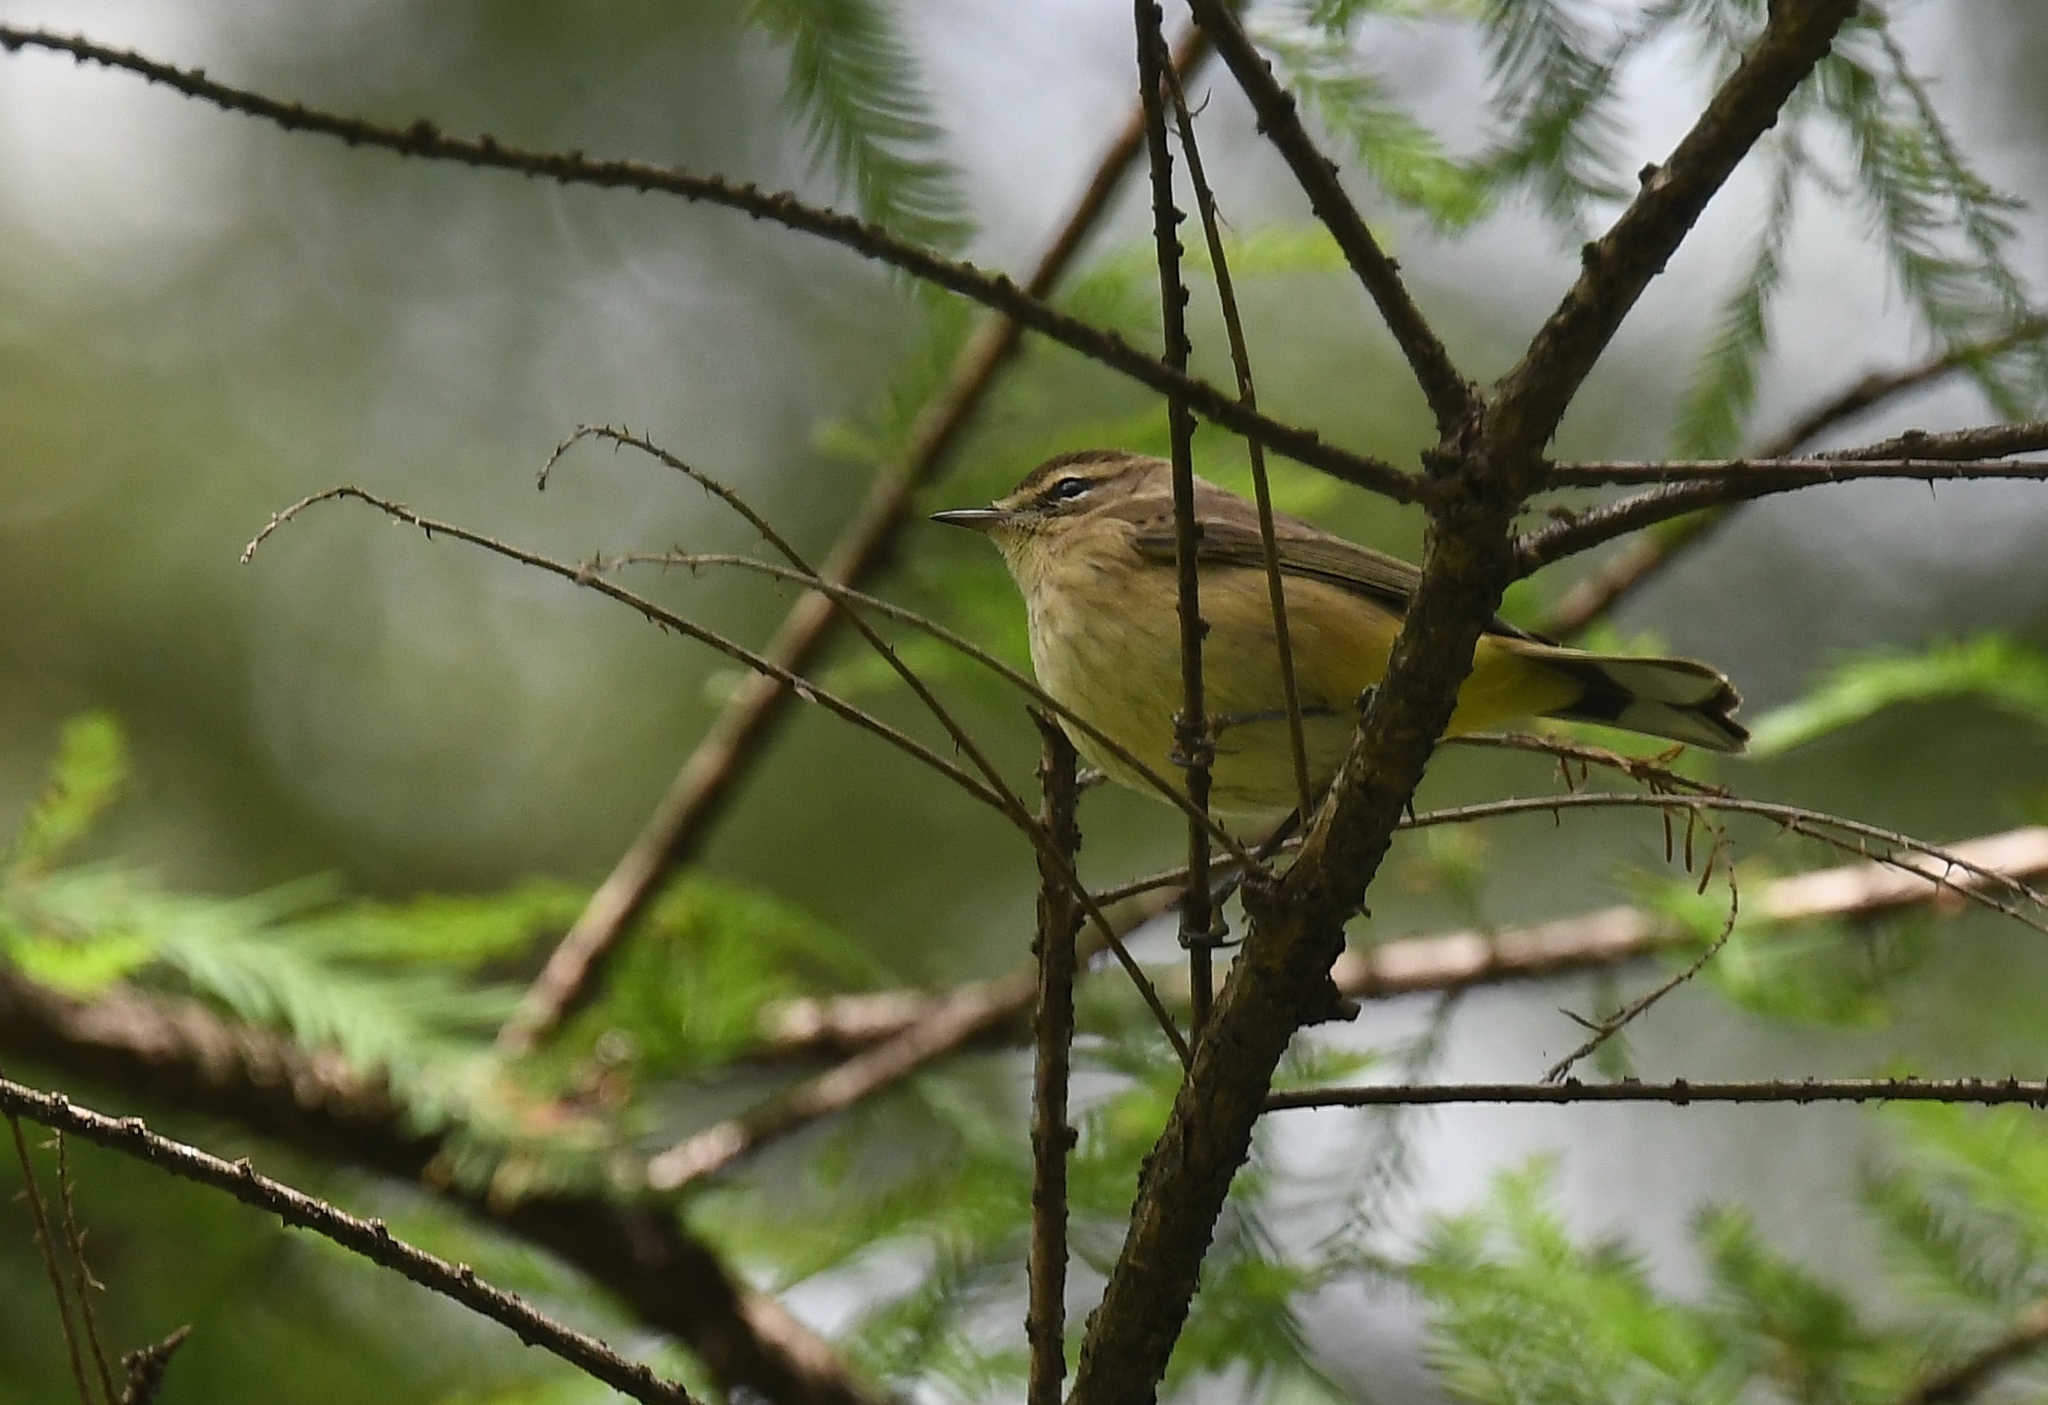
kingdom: Animalia
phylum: Chordata
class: Aves
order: Passeriformes
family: Parulidae
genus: Setophaga
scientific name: Setophaga palmarum
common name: Palm warbler
